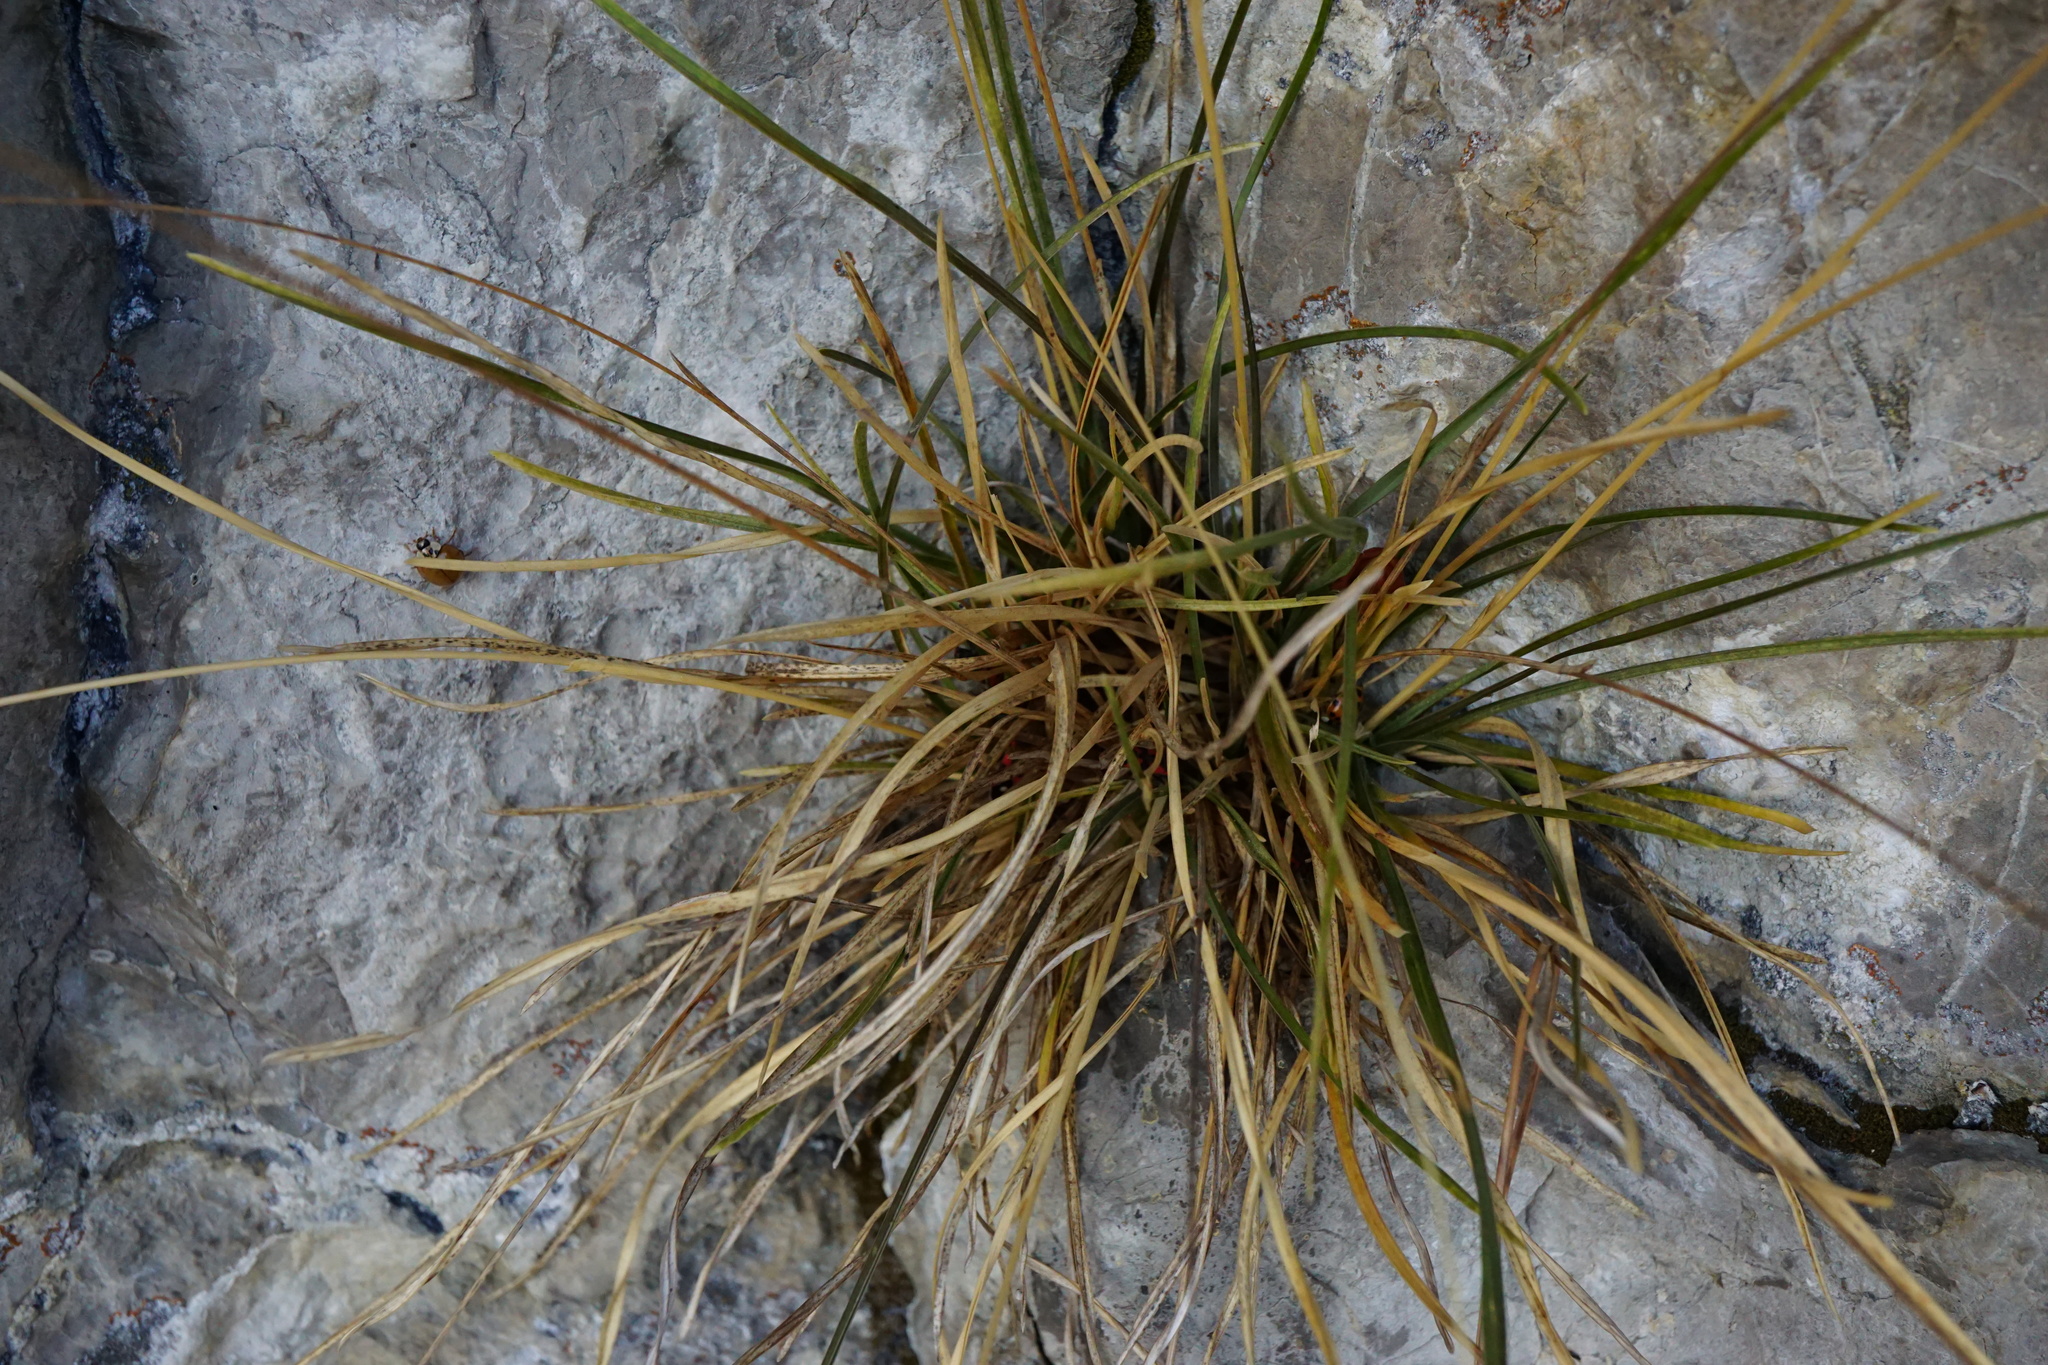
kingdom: Plantae
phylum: Tracheophyta
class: Liliopsida
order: Poales
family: Poaceae
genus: Sesleria
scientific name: Sesleria caerulea
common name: Blue moor-grass
